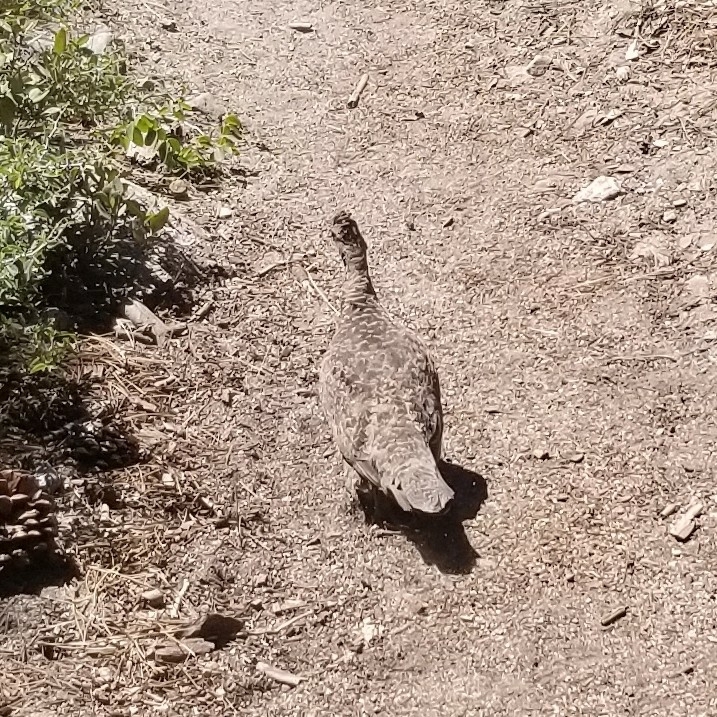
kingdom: Animalia
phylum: Chordata
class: Aves
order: Galliformes
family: Phasianidae
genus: Dendragapus
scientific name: Dendragapus fuliginosus
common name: Sooty grouse
